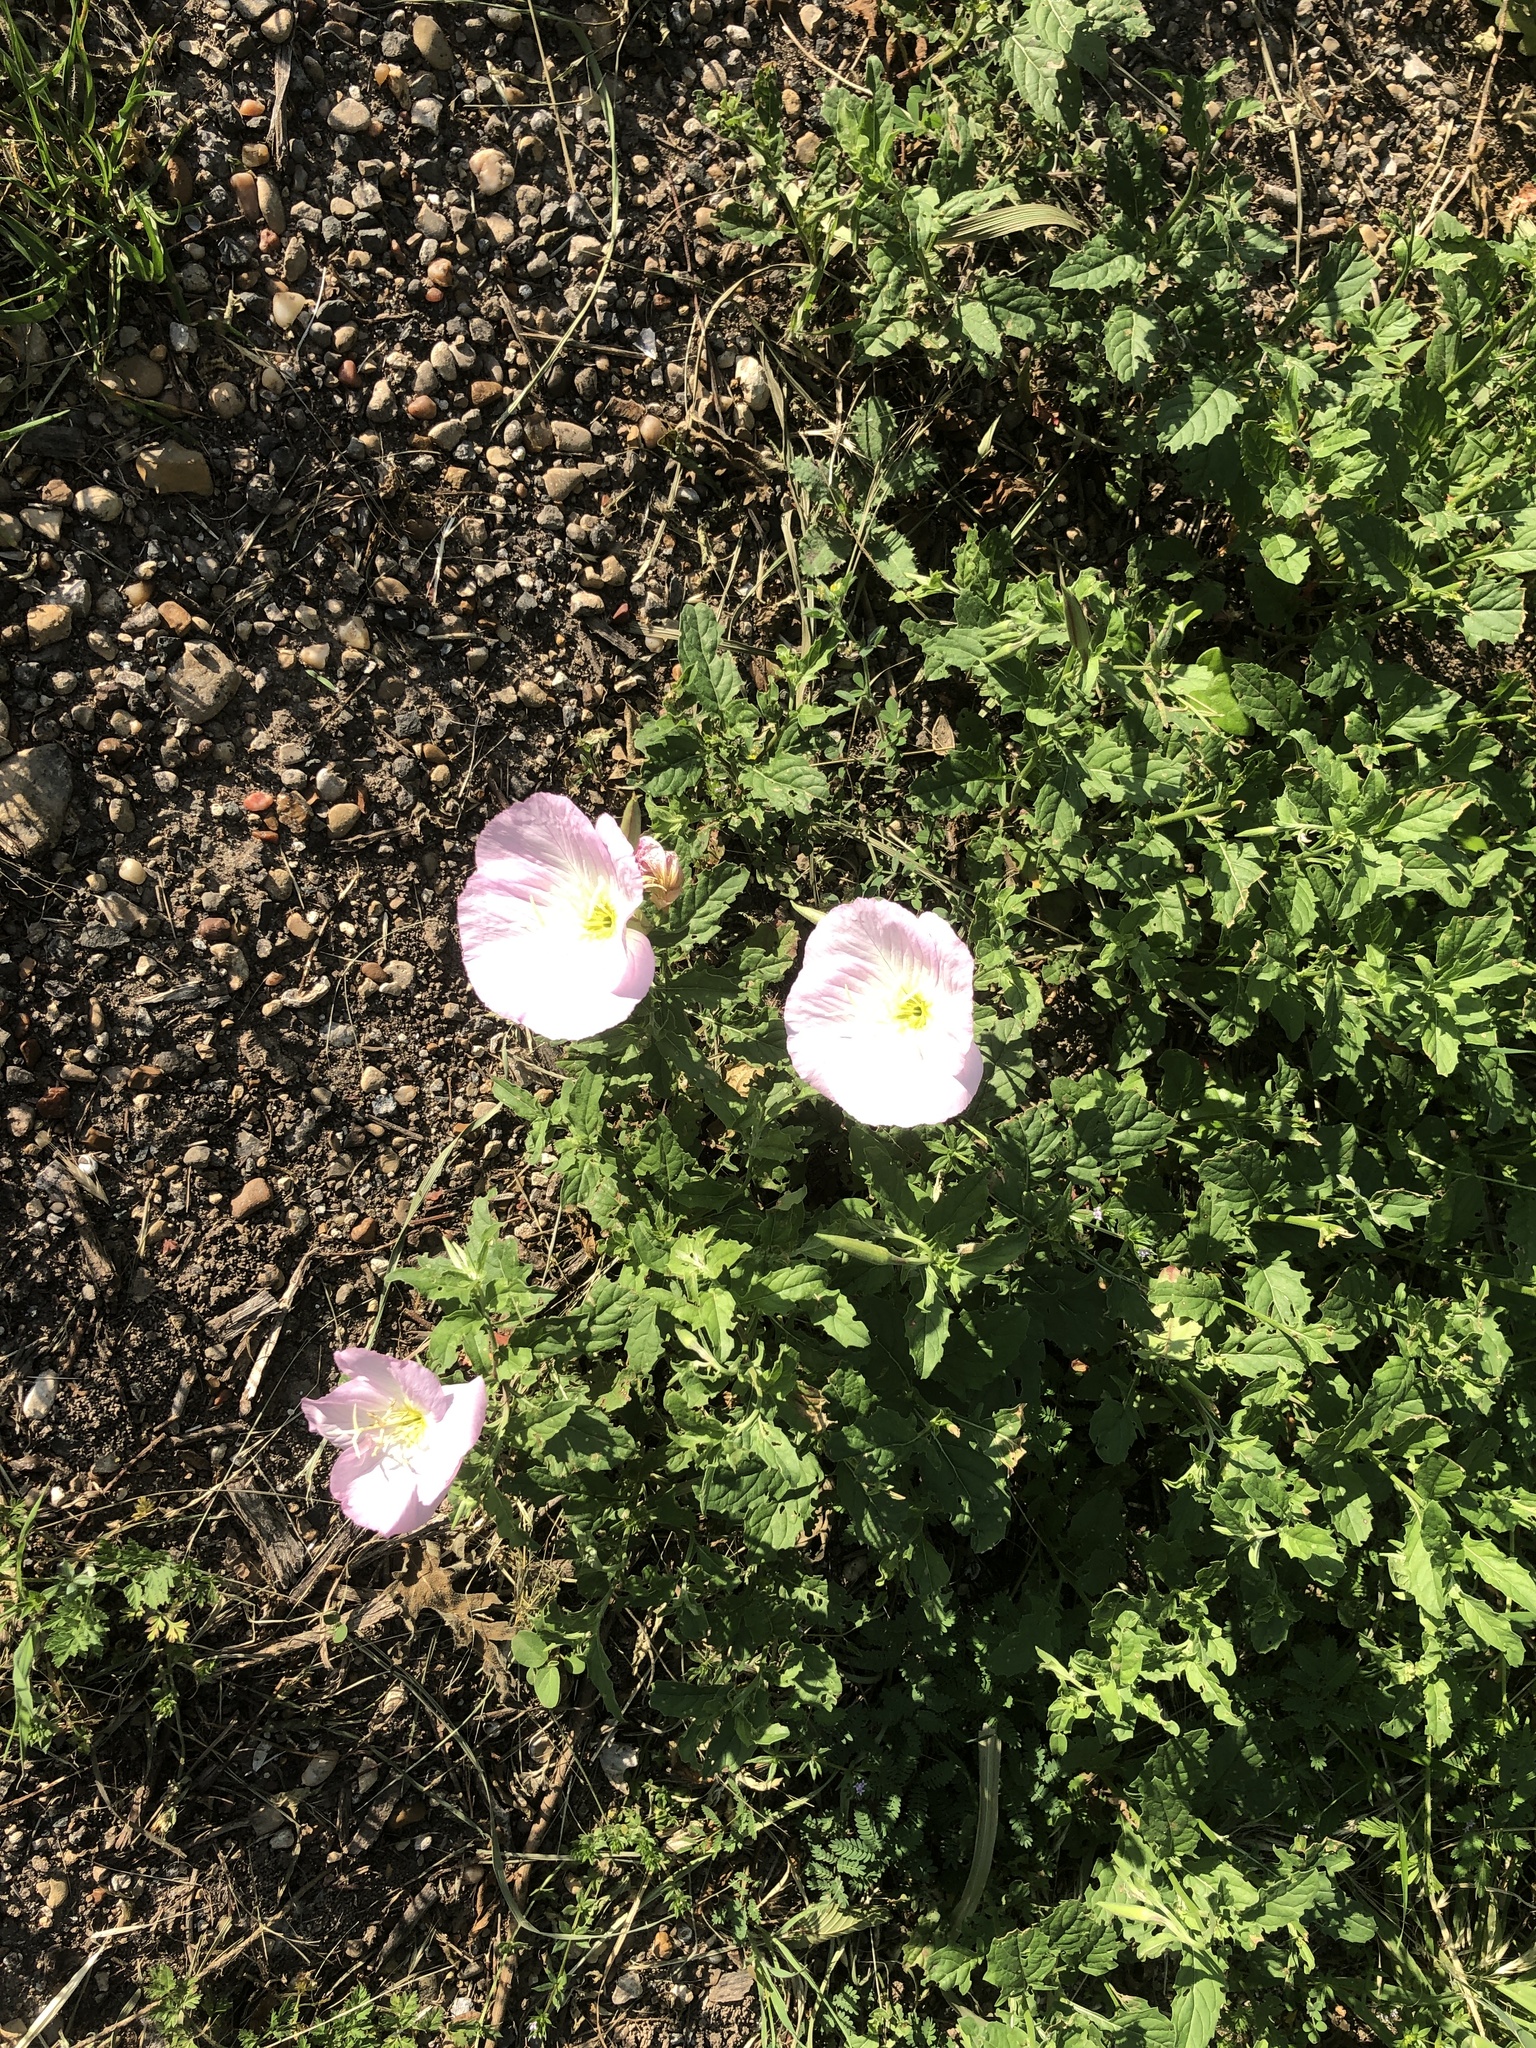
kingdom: Plantae
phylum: Tracheophyta
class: Magnoliopsida
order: Myrtales
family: Onagraceae
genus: Oenothera
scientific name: Oenothera speciosa
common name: White evening-primrose
